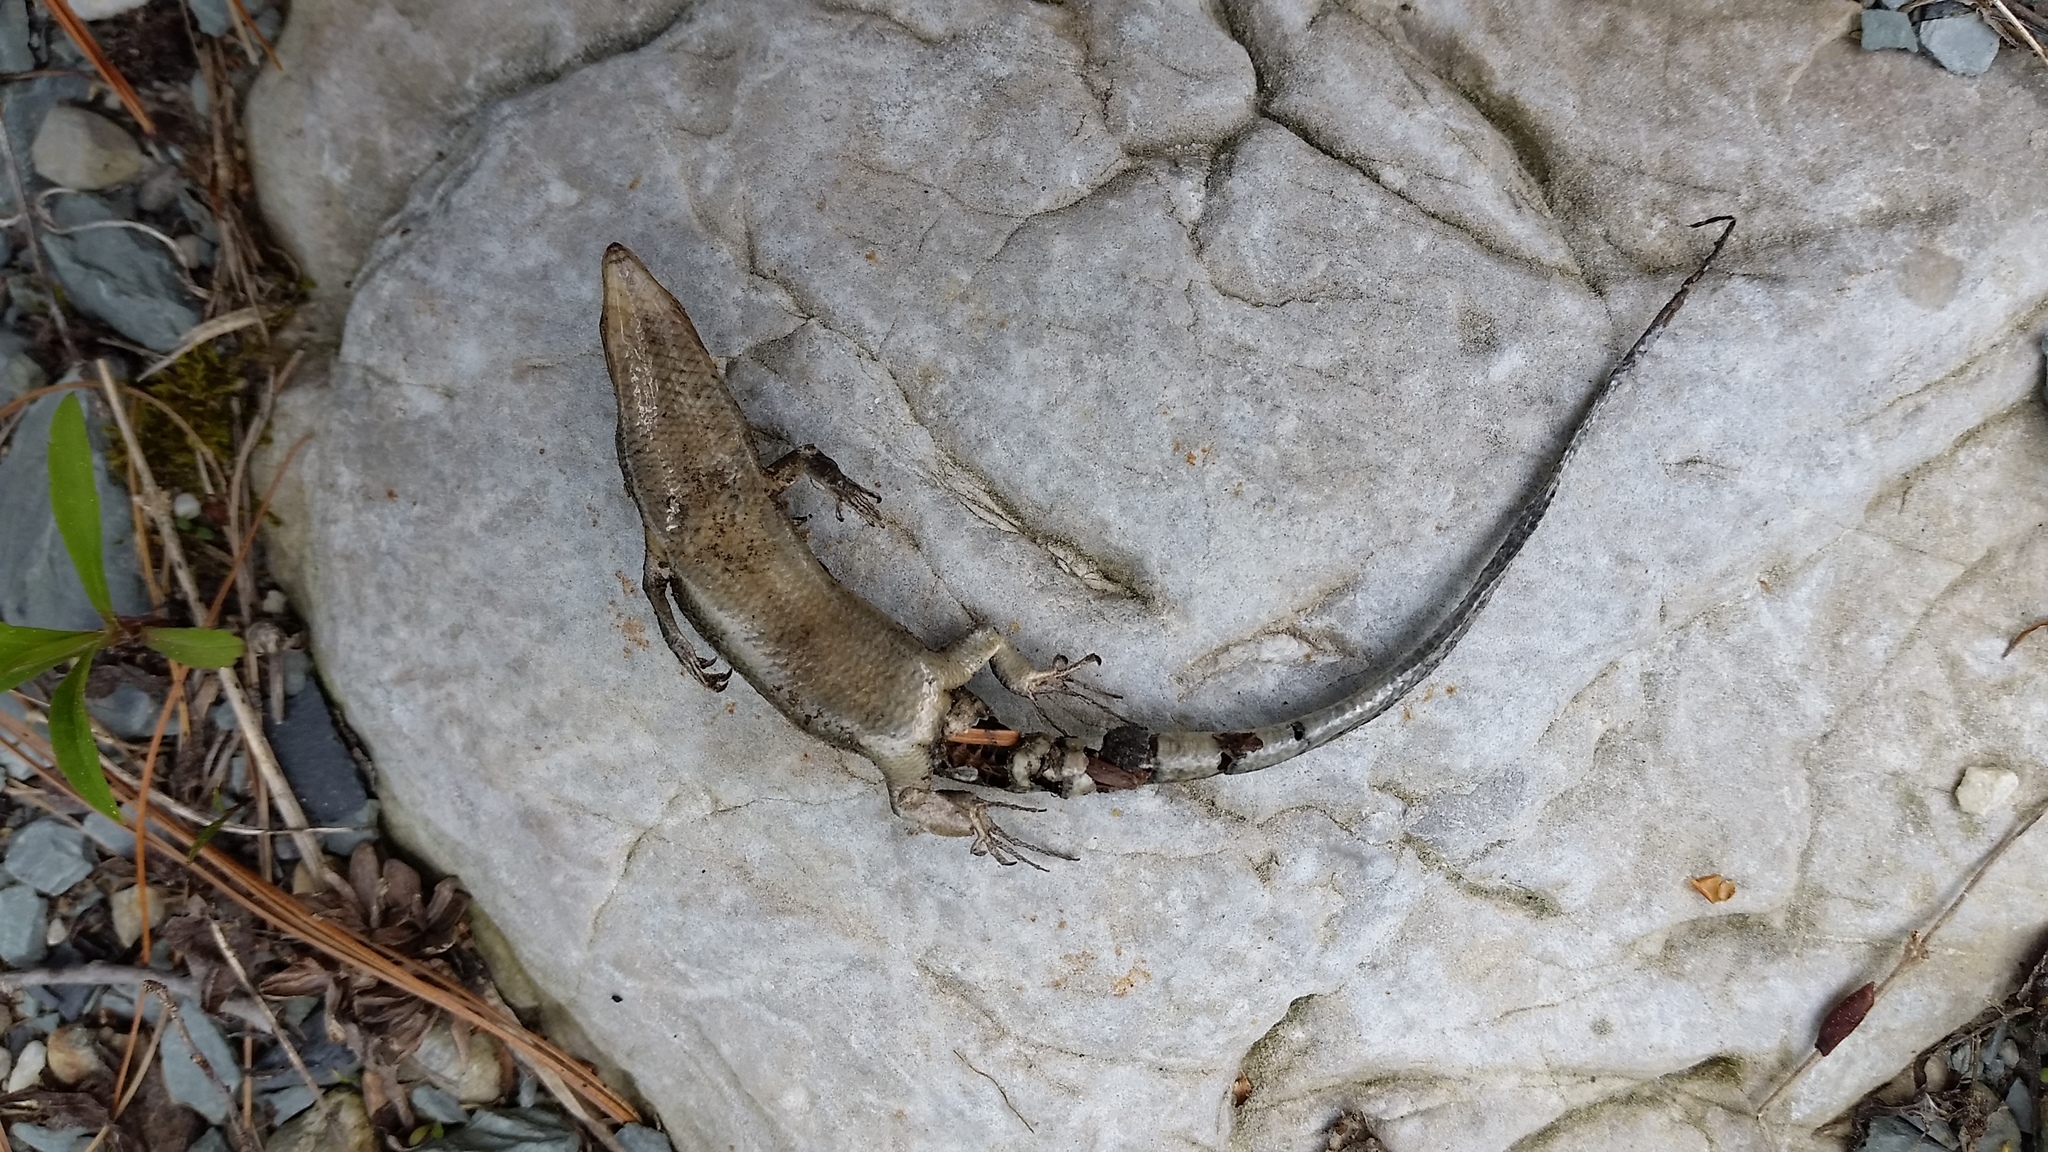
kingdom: Animalia
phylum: Chordata
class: Squamata
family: Scincidae
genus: Plestiodon
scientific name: Plestiodon fasciatus
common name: Five-lined skink
